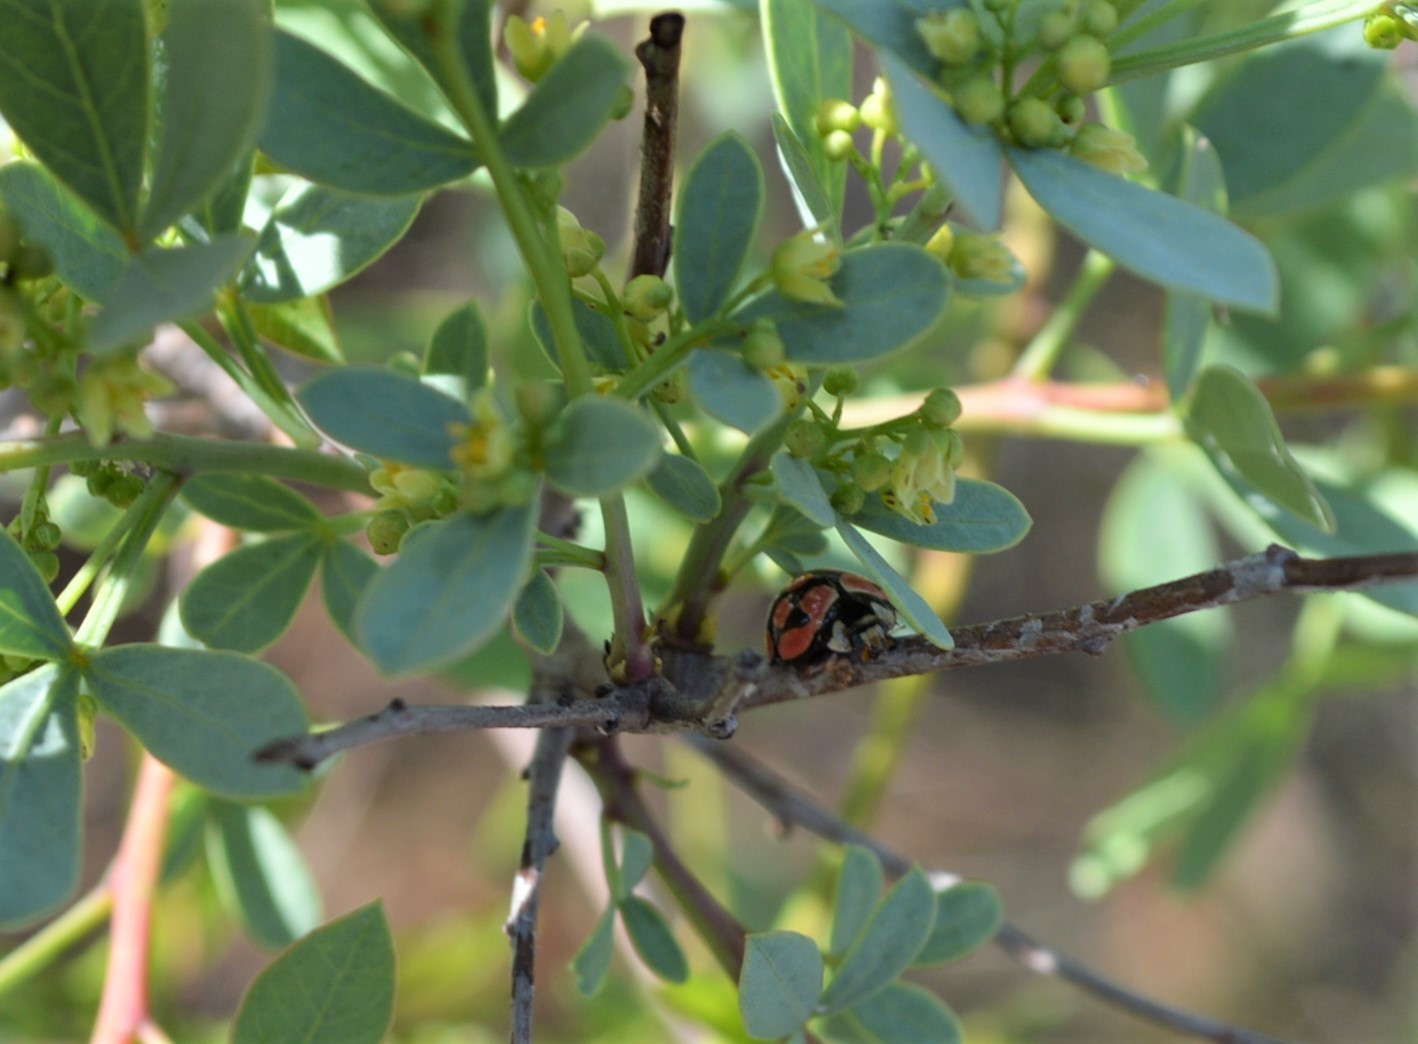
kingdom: Plantae
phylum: Tracheophyta
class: Magnoliopsida
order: Sapindales
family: Anacardiaceae
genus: Searsia
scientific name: Searsia zeyheri
